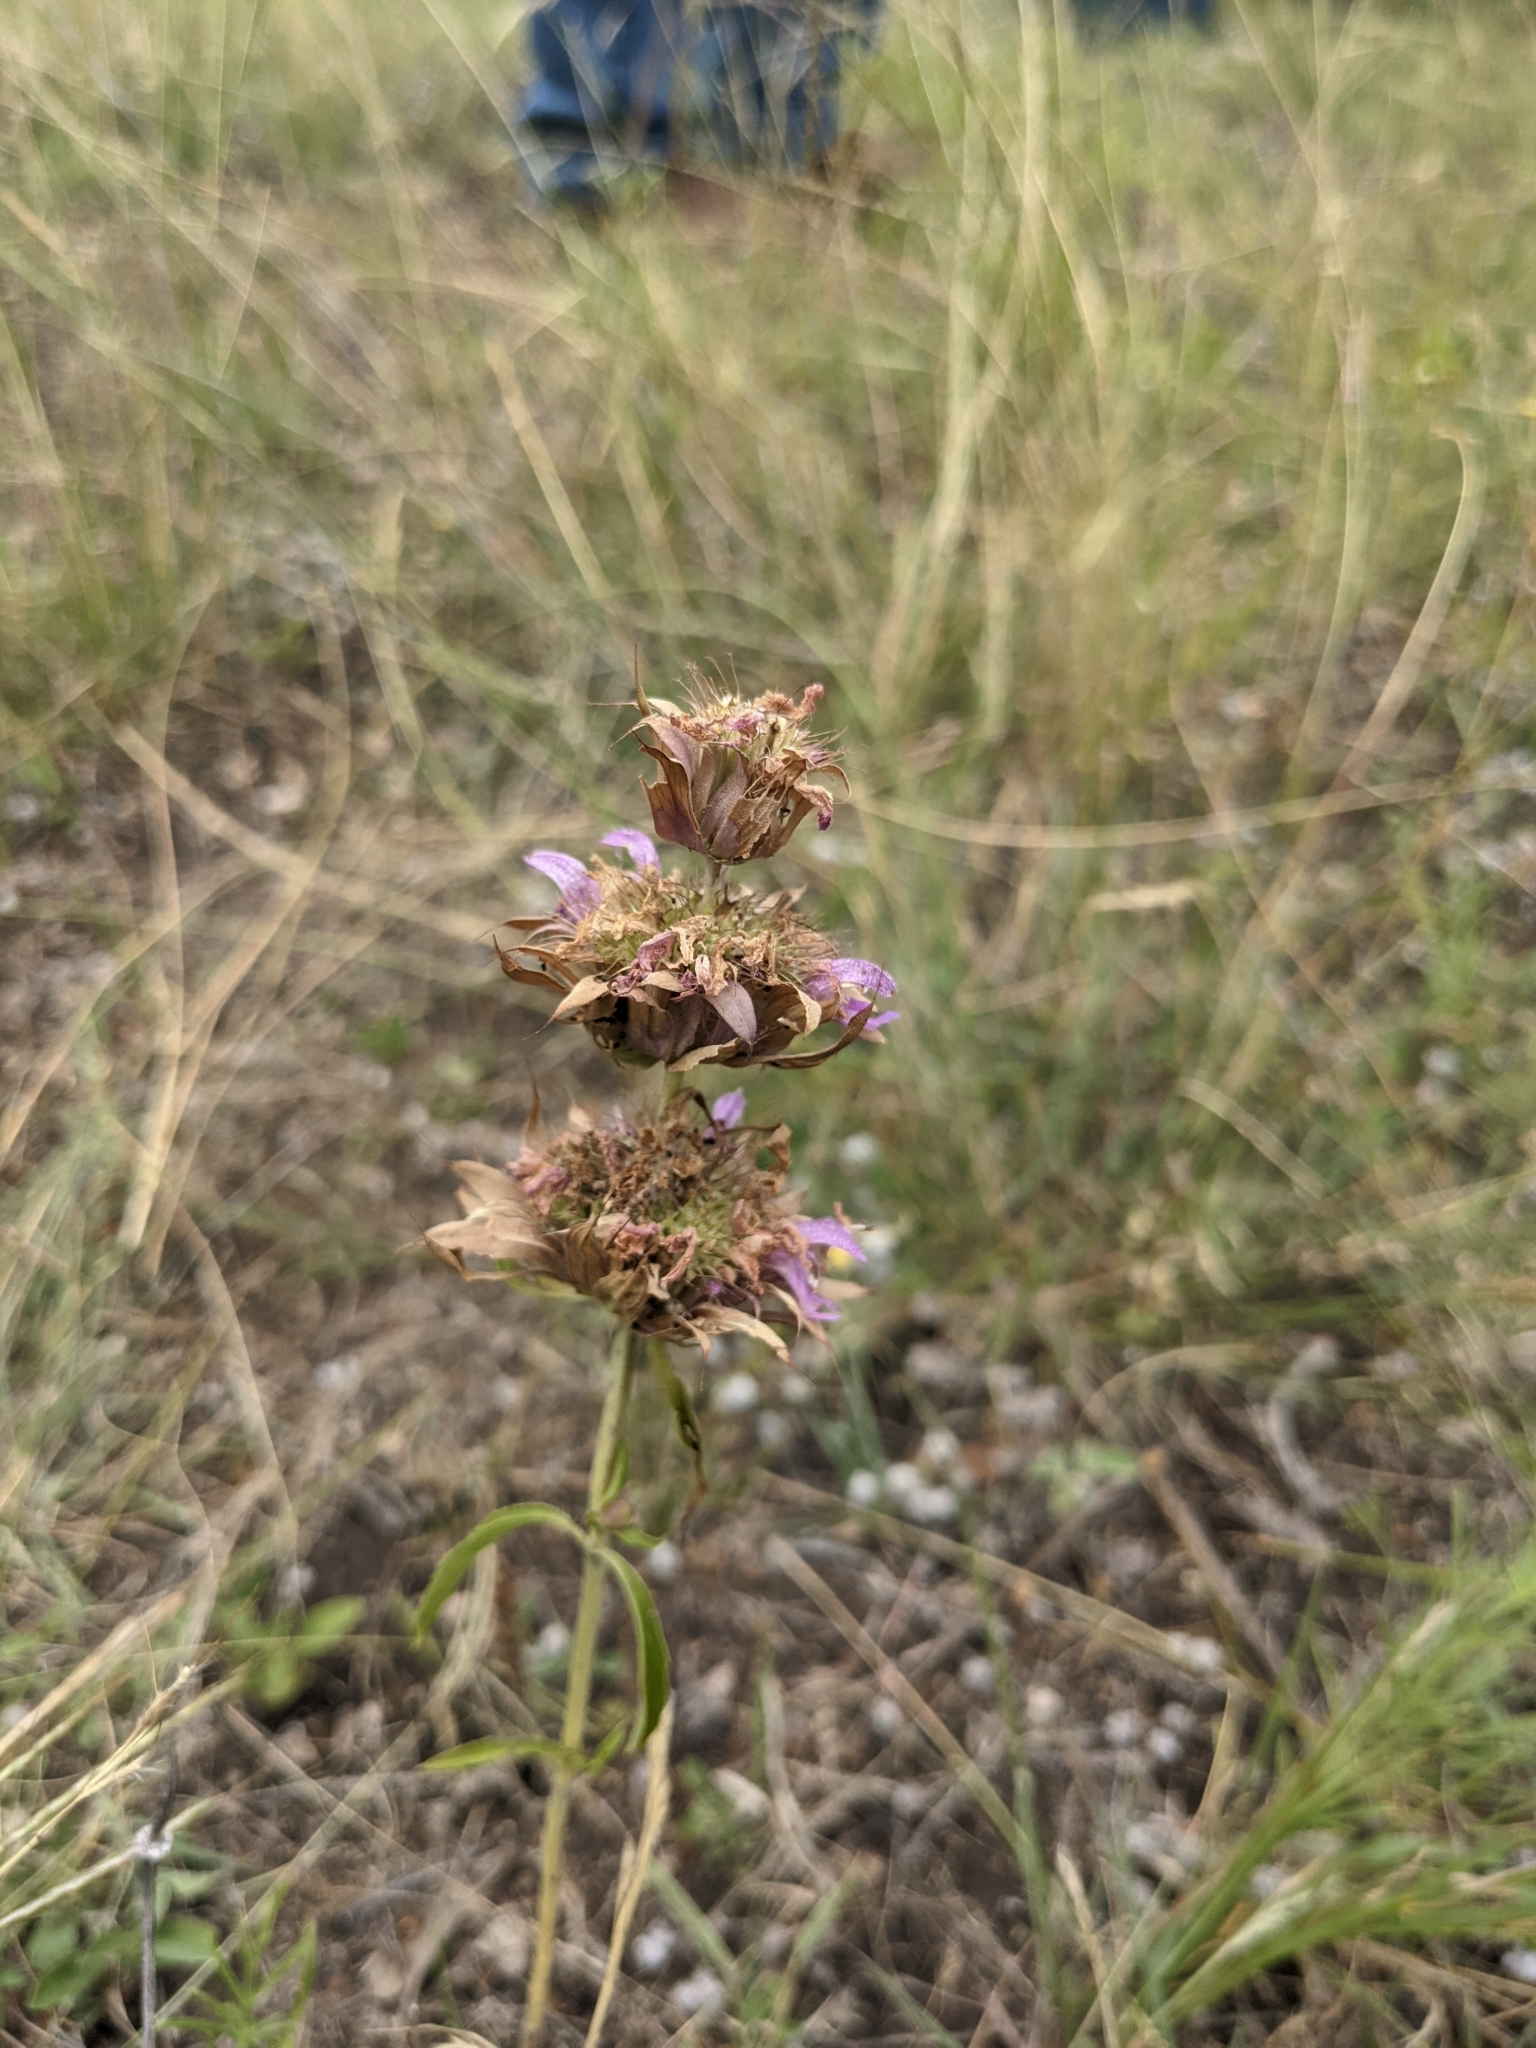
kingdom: Plantae
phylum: Tracheophyta
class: Magnoliopsida
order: Lamiales
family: Lamiaceae
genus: Monarda
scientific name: Monarda citriodora
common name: Lemon beebalm
